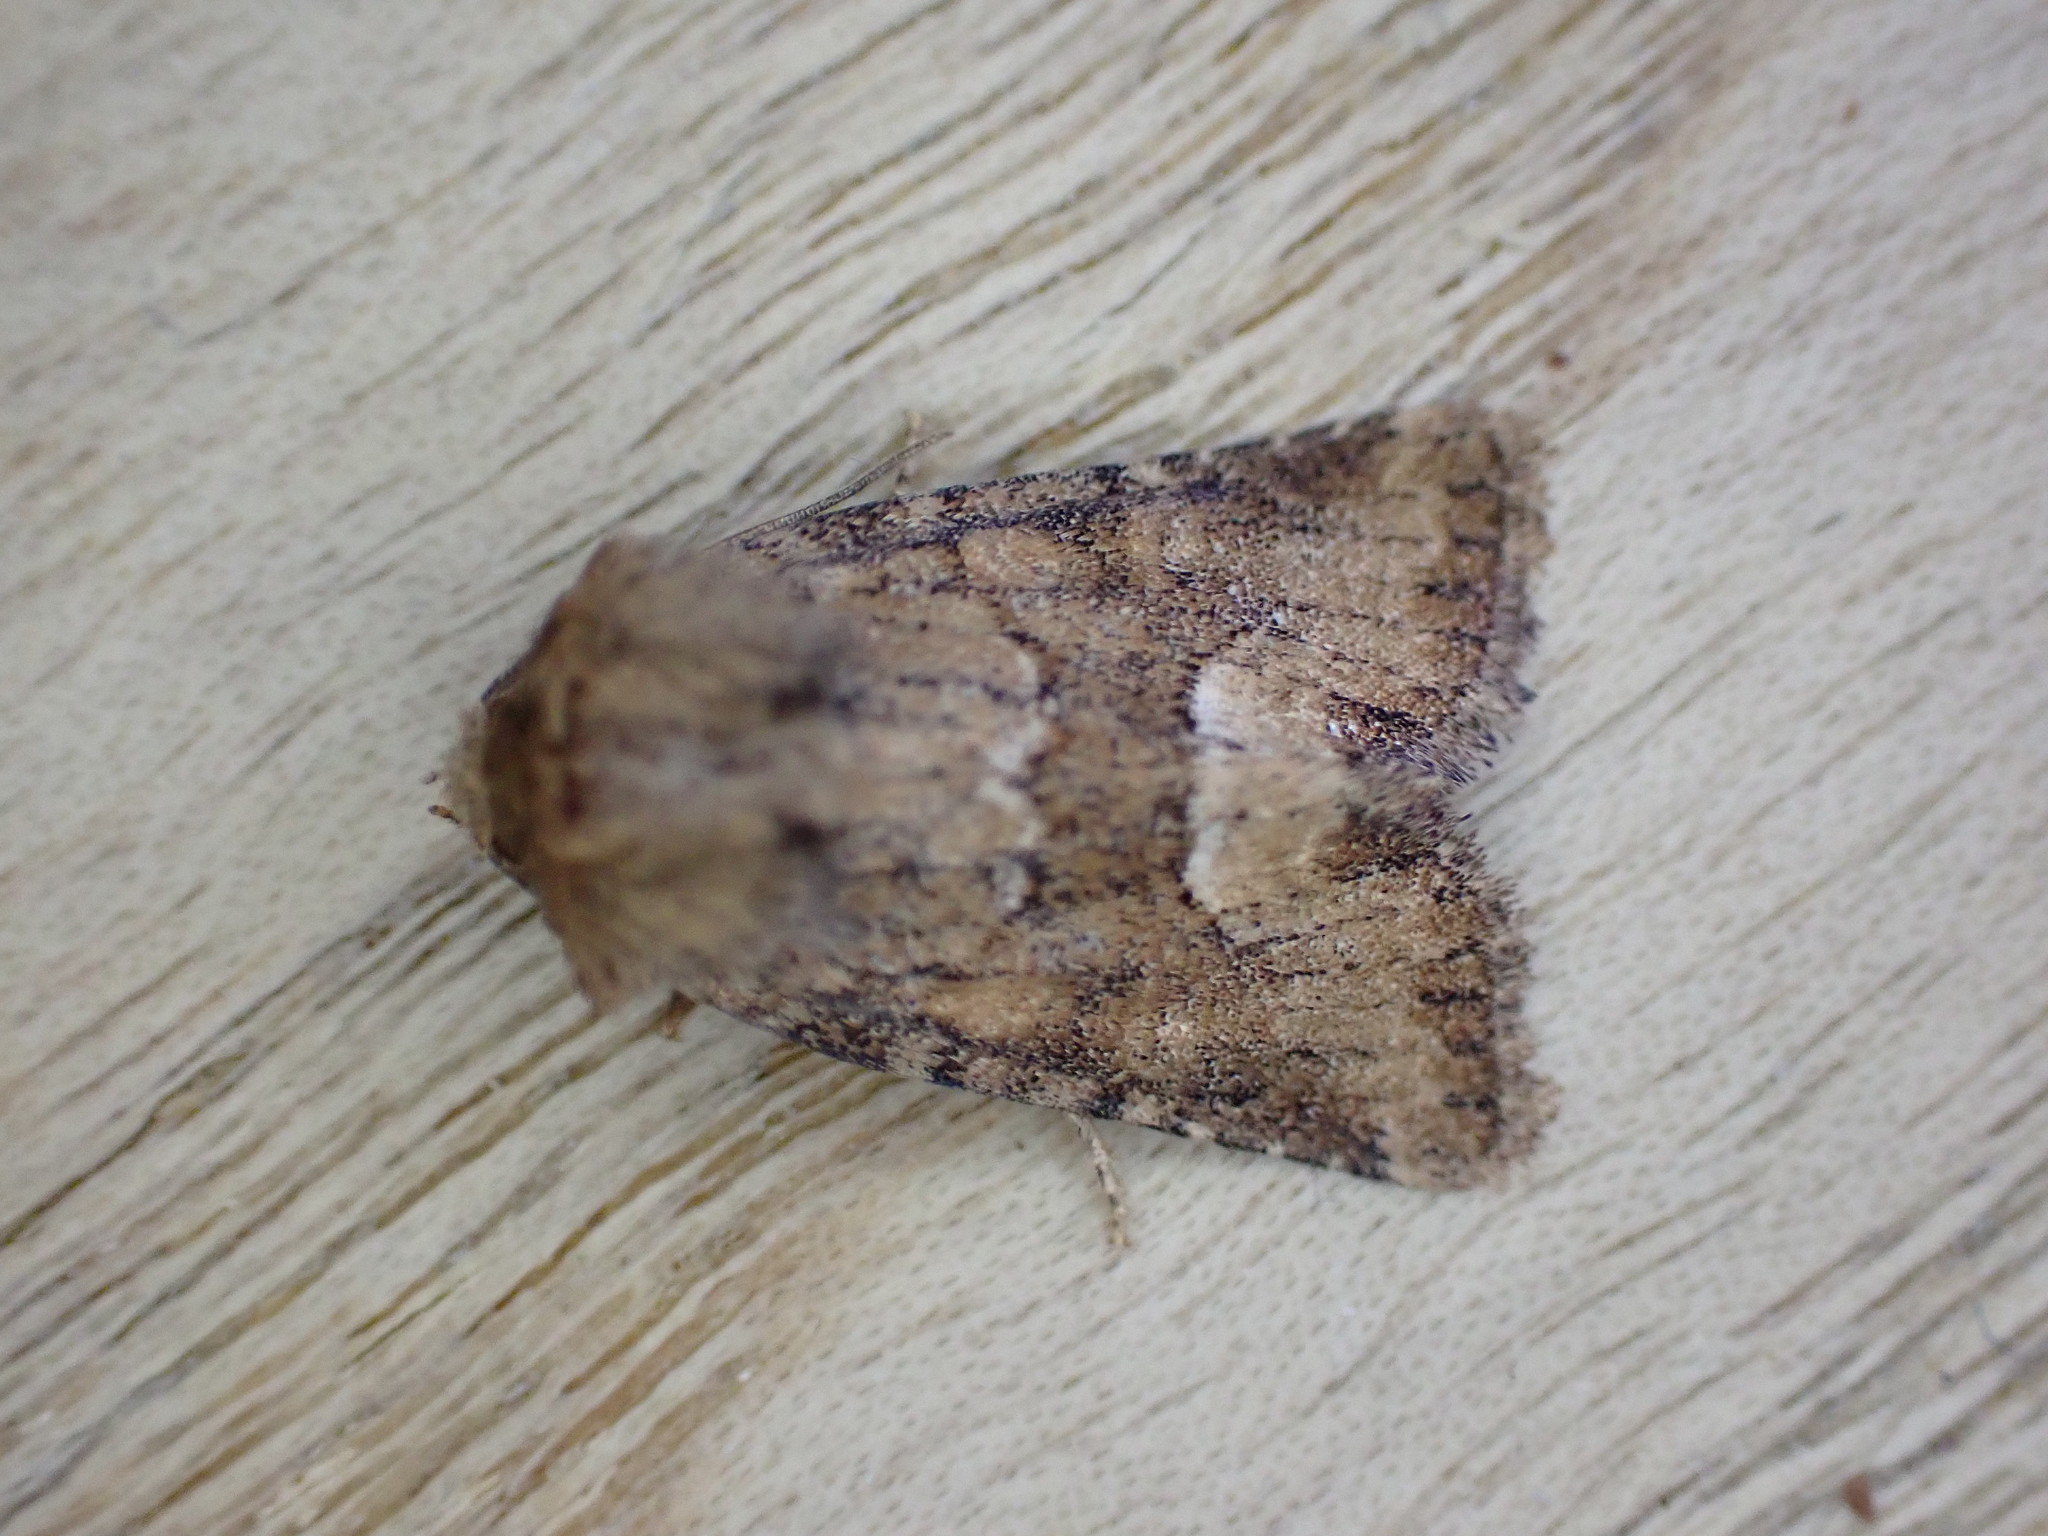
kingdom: Animalia
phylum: Arthropoda
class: Insecta
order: Lepidoptera
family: Noctuidae
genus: Oligia
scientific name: Oligia fasciuncula
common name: Middle-barred minor
